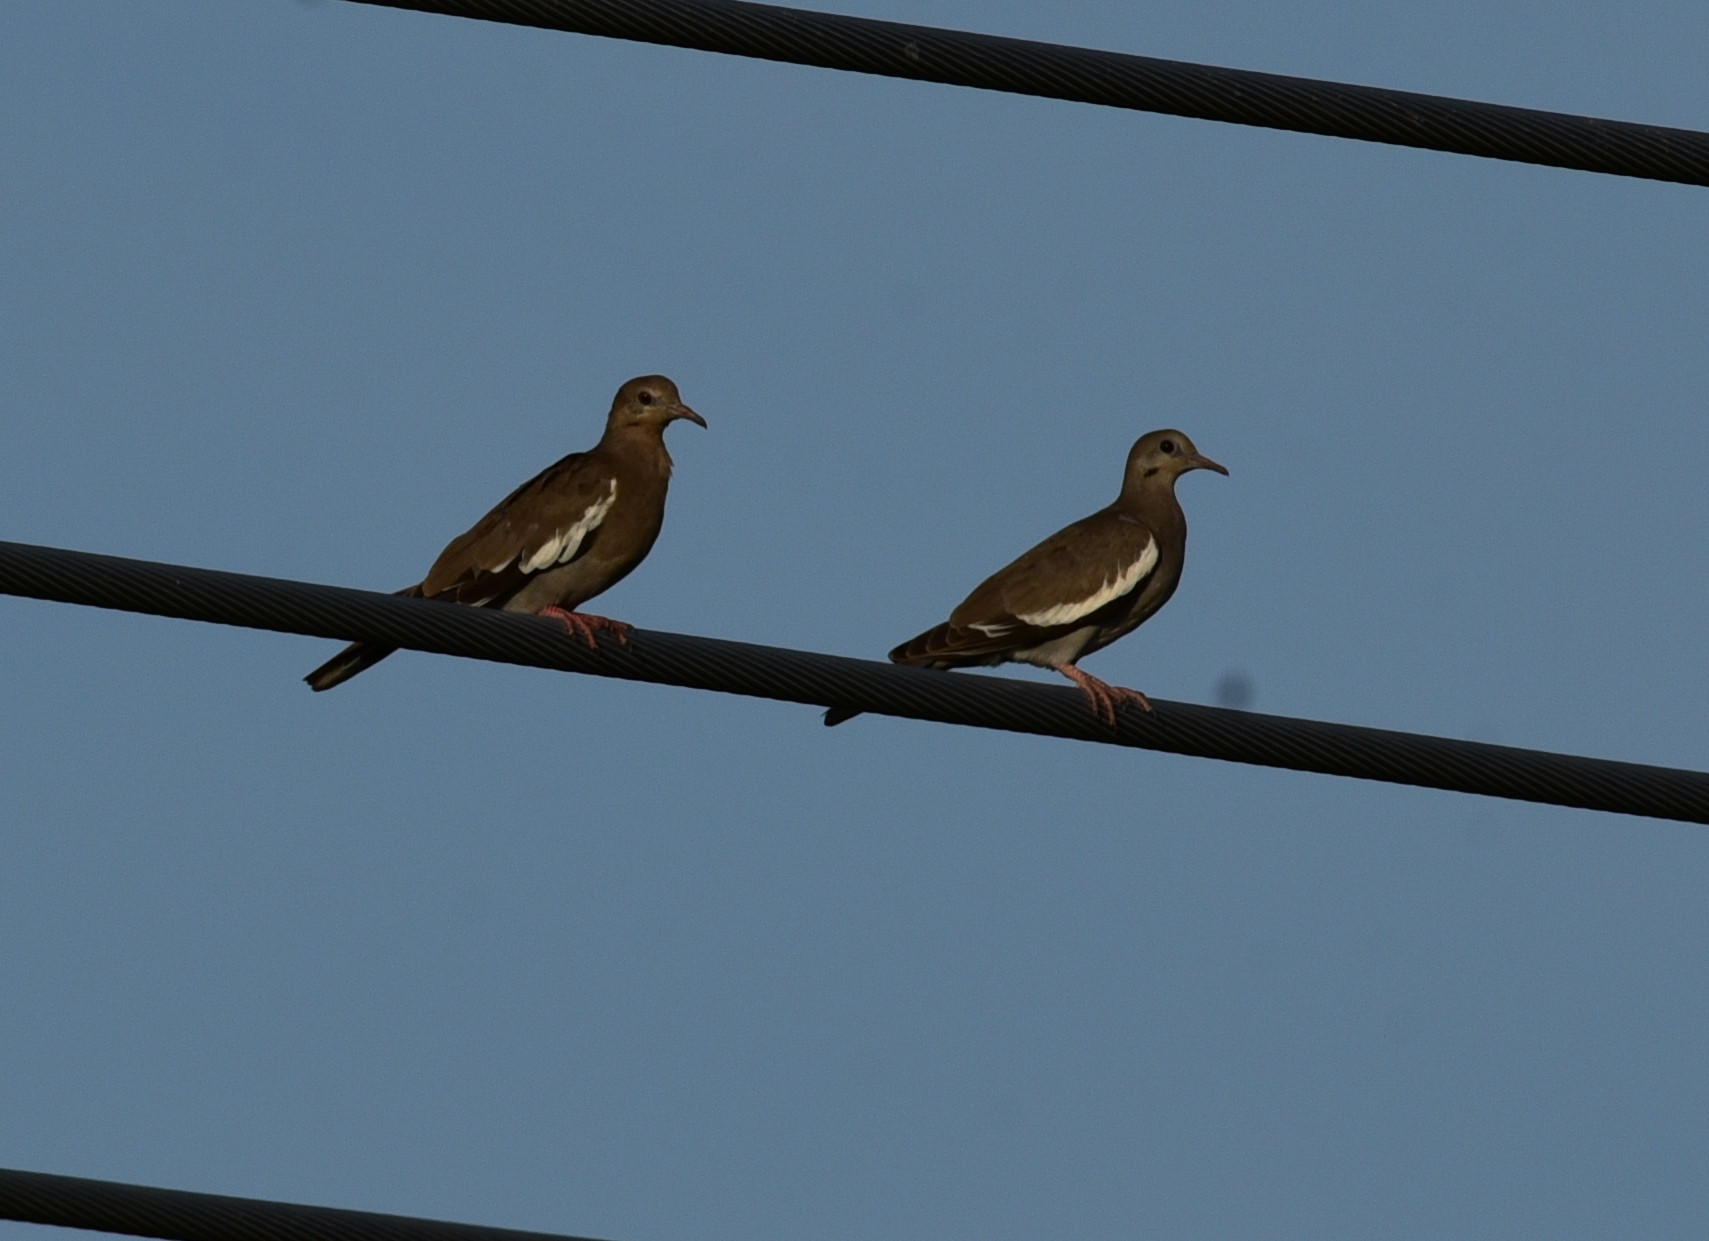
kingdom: Animalia
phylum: Chordata
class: Aves
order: Columbiformes
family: Columbidae
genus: Zenaida
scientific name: Zenaida asiatica
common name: White-winged dove
